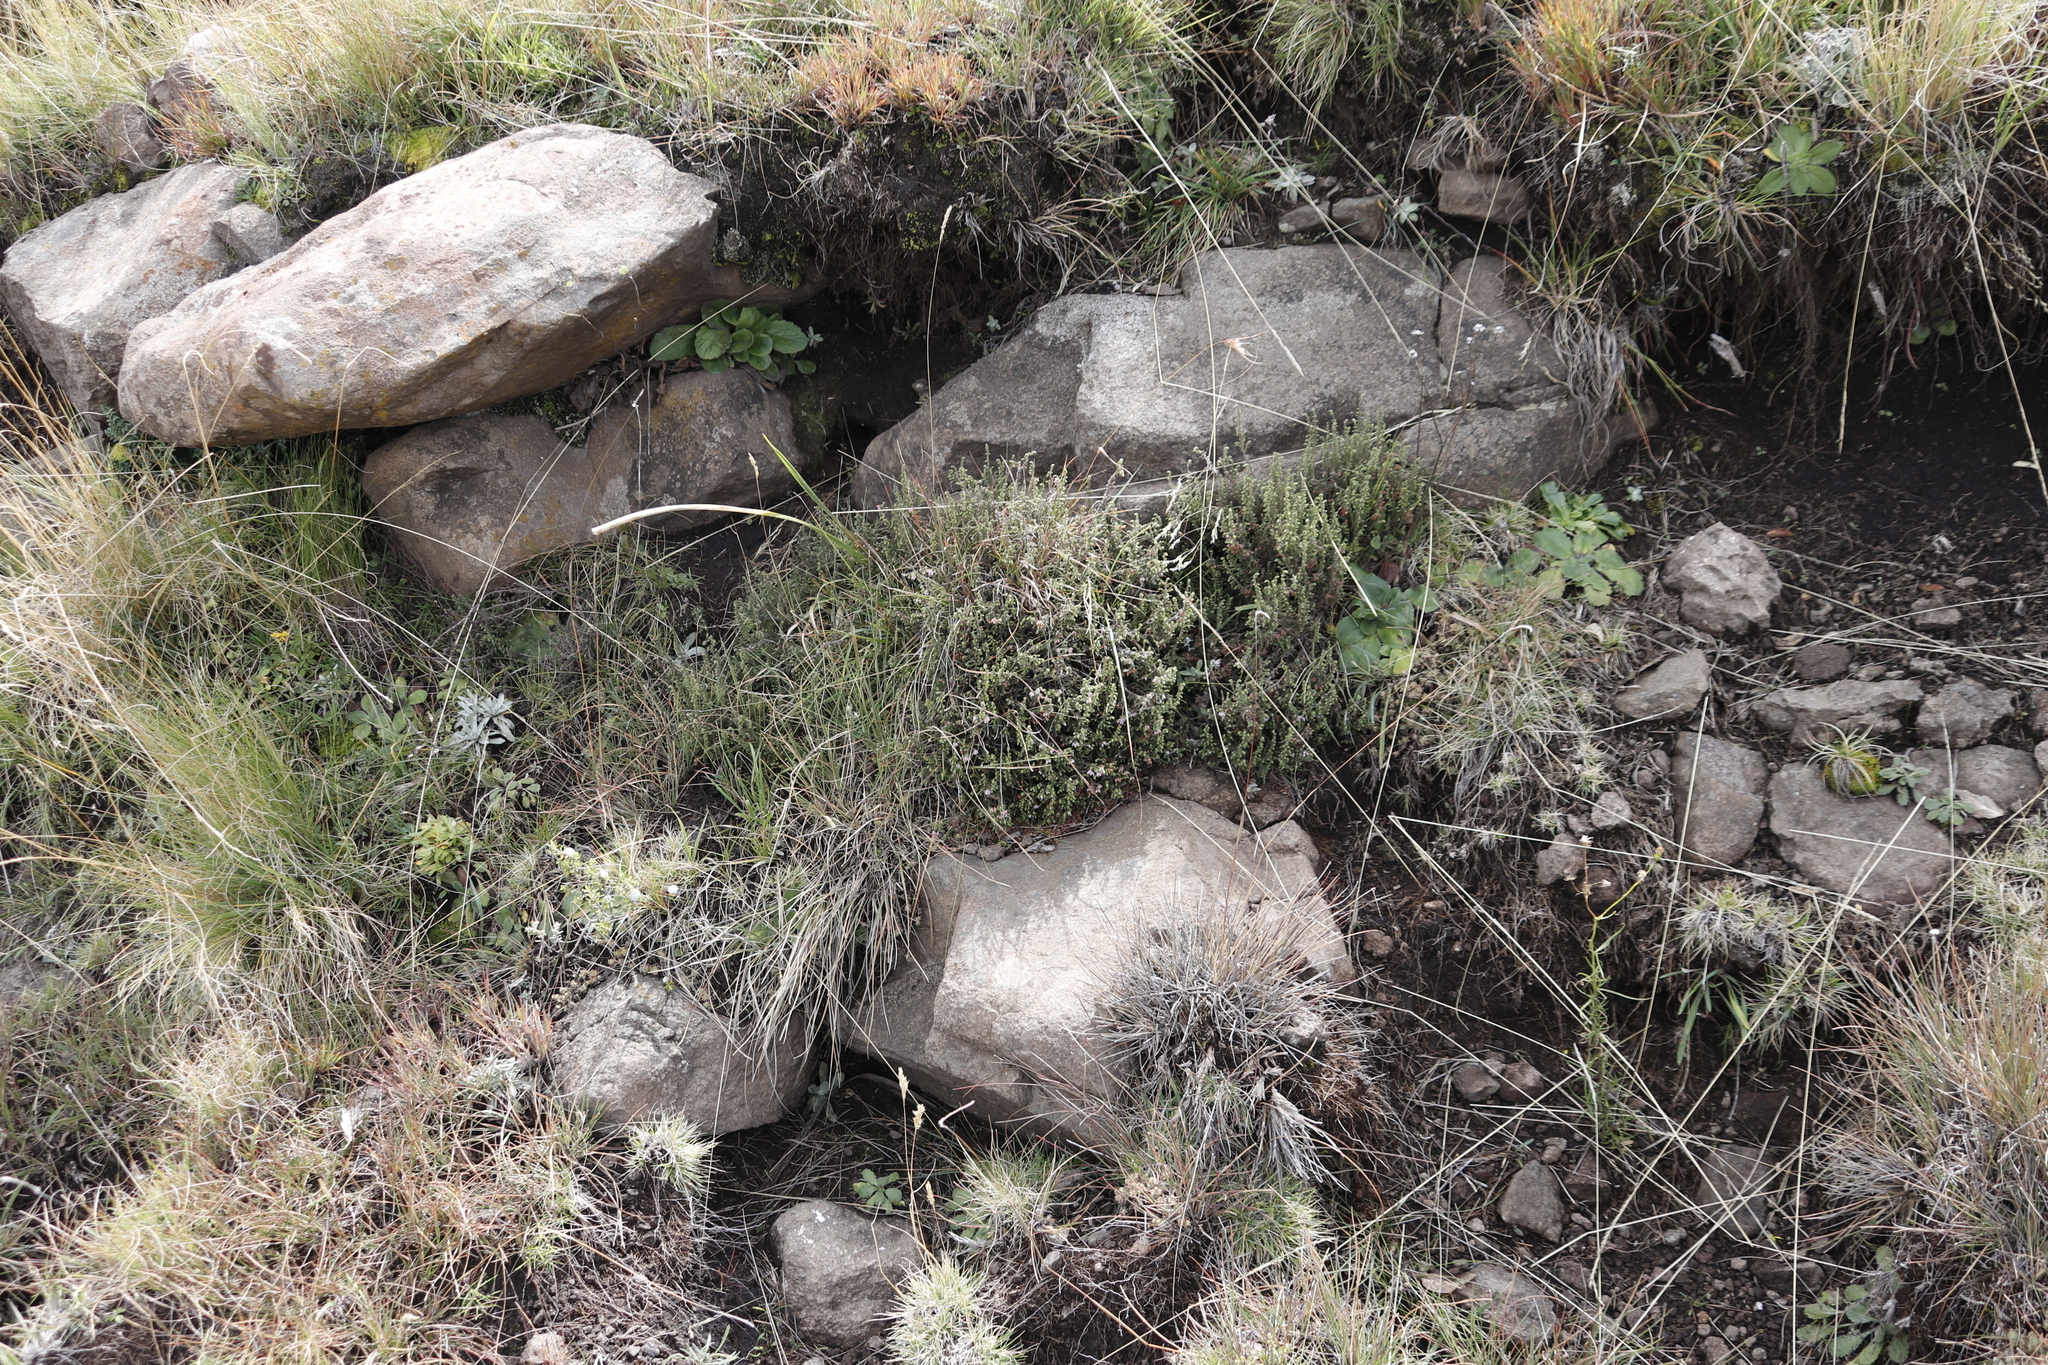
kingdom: Plantae
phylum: Tracheophyta
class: Magnoliopsida
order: Ericales
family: Ericaceae
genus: Erica
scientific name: Erica frigida
